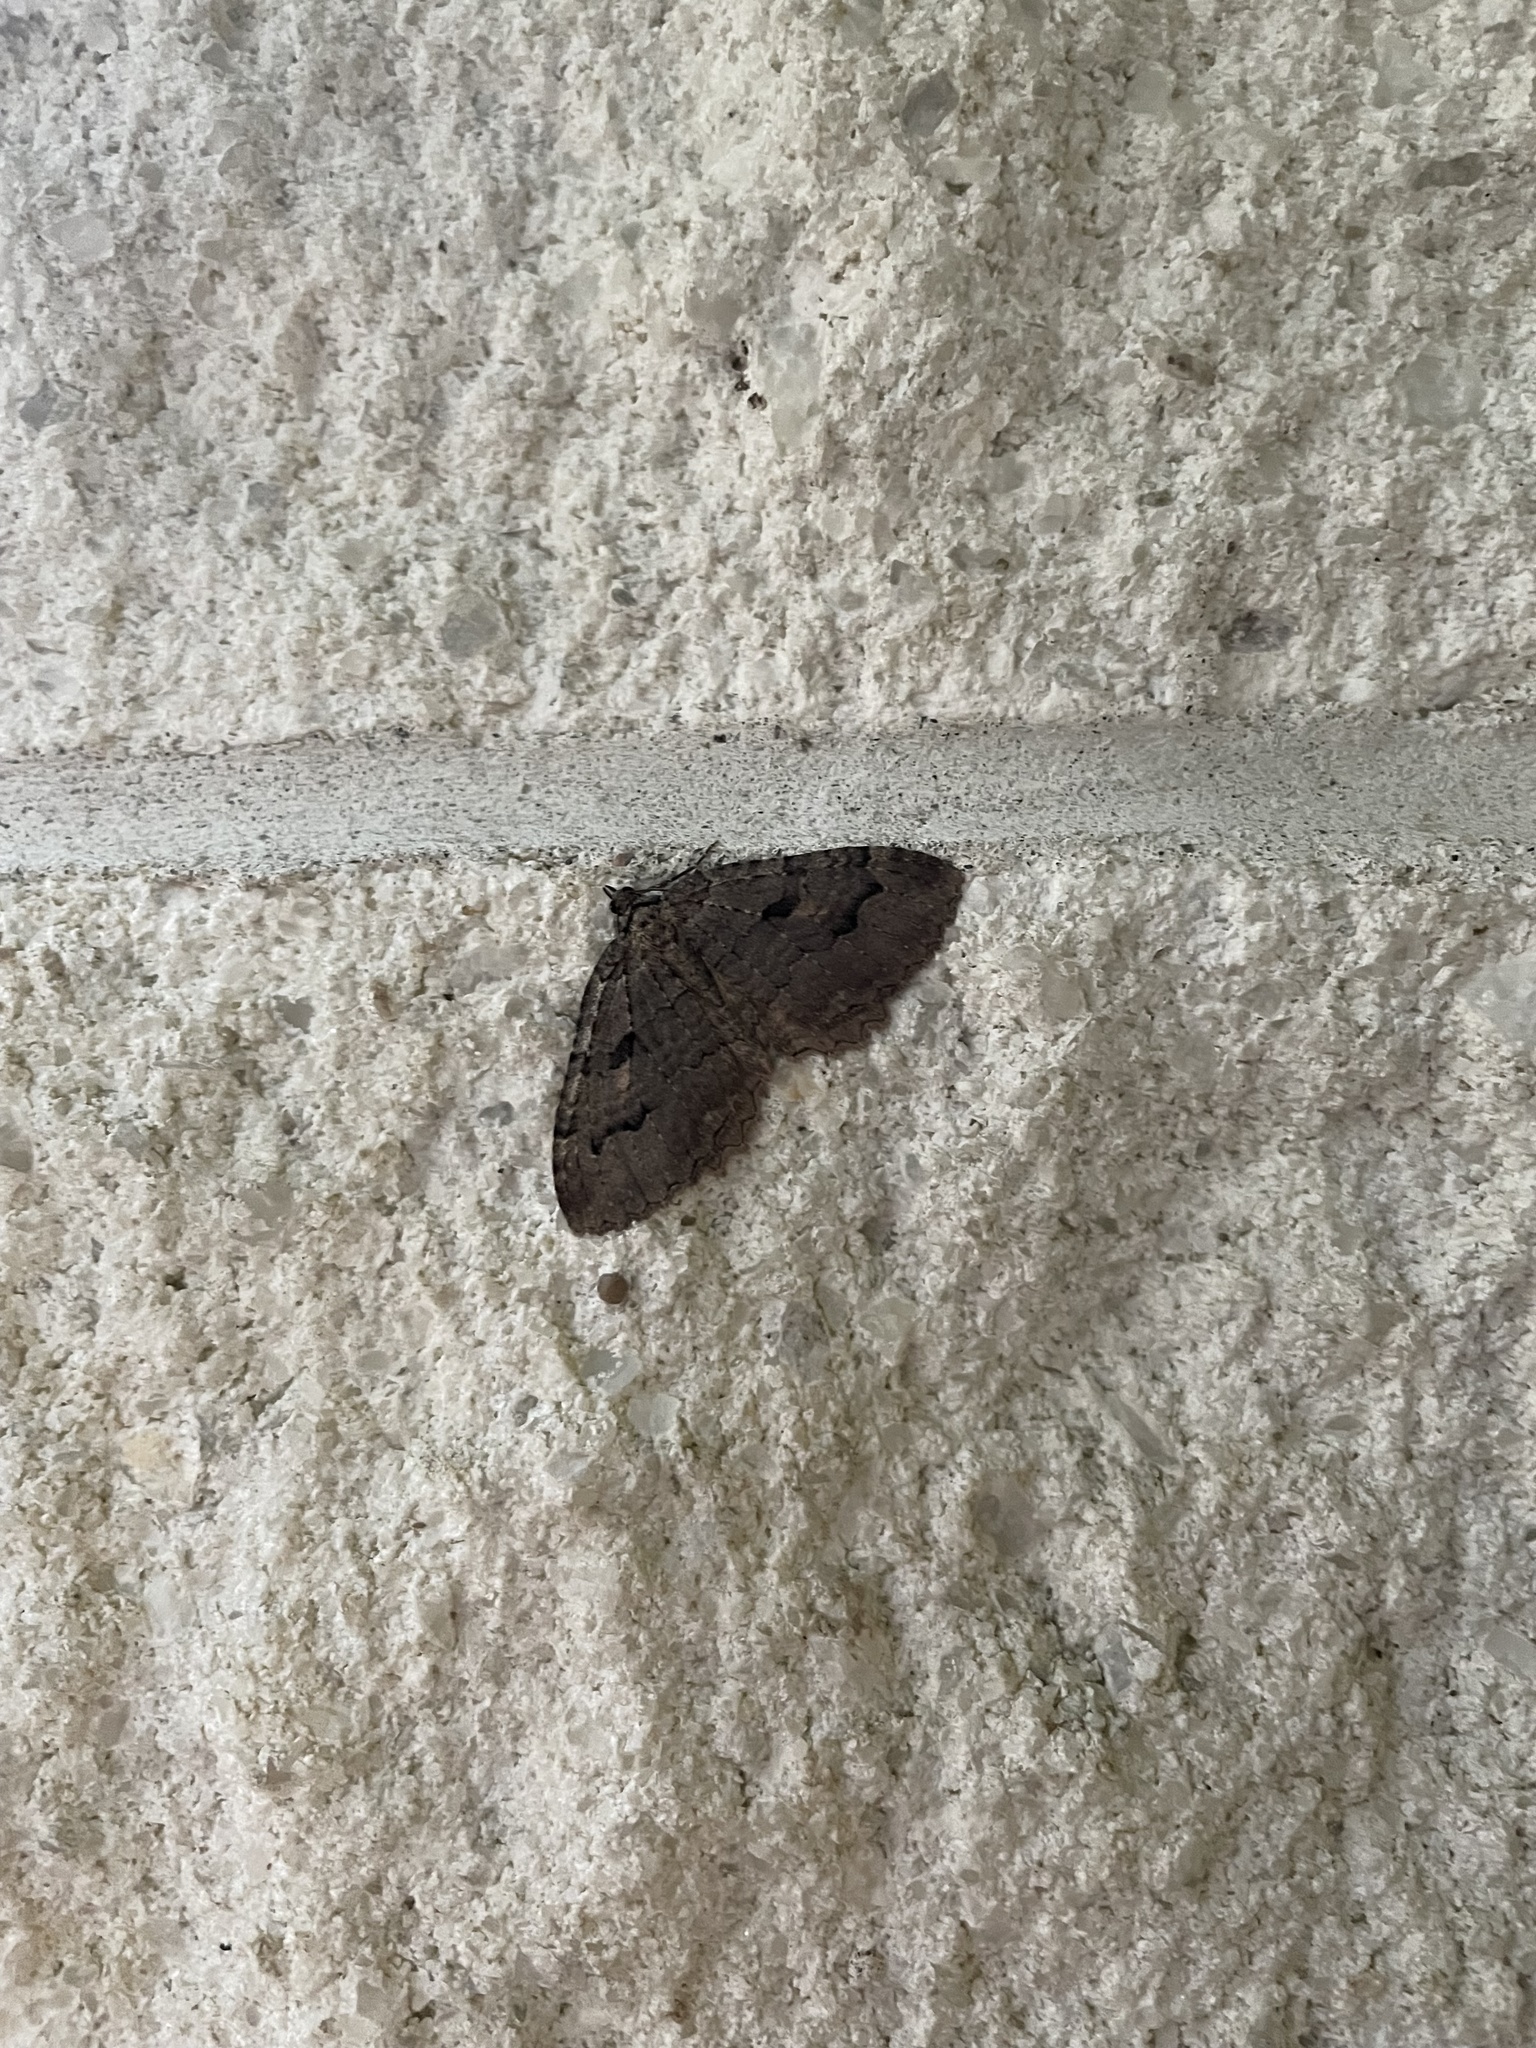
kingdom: Animalia
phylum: Arthropoda
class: Insecta
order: Lepidoptera
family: Geometridae
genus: Triphosa
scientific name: Triphosa haesitata
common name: Tissue moth
